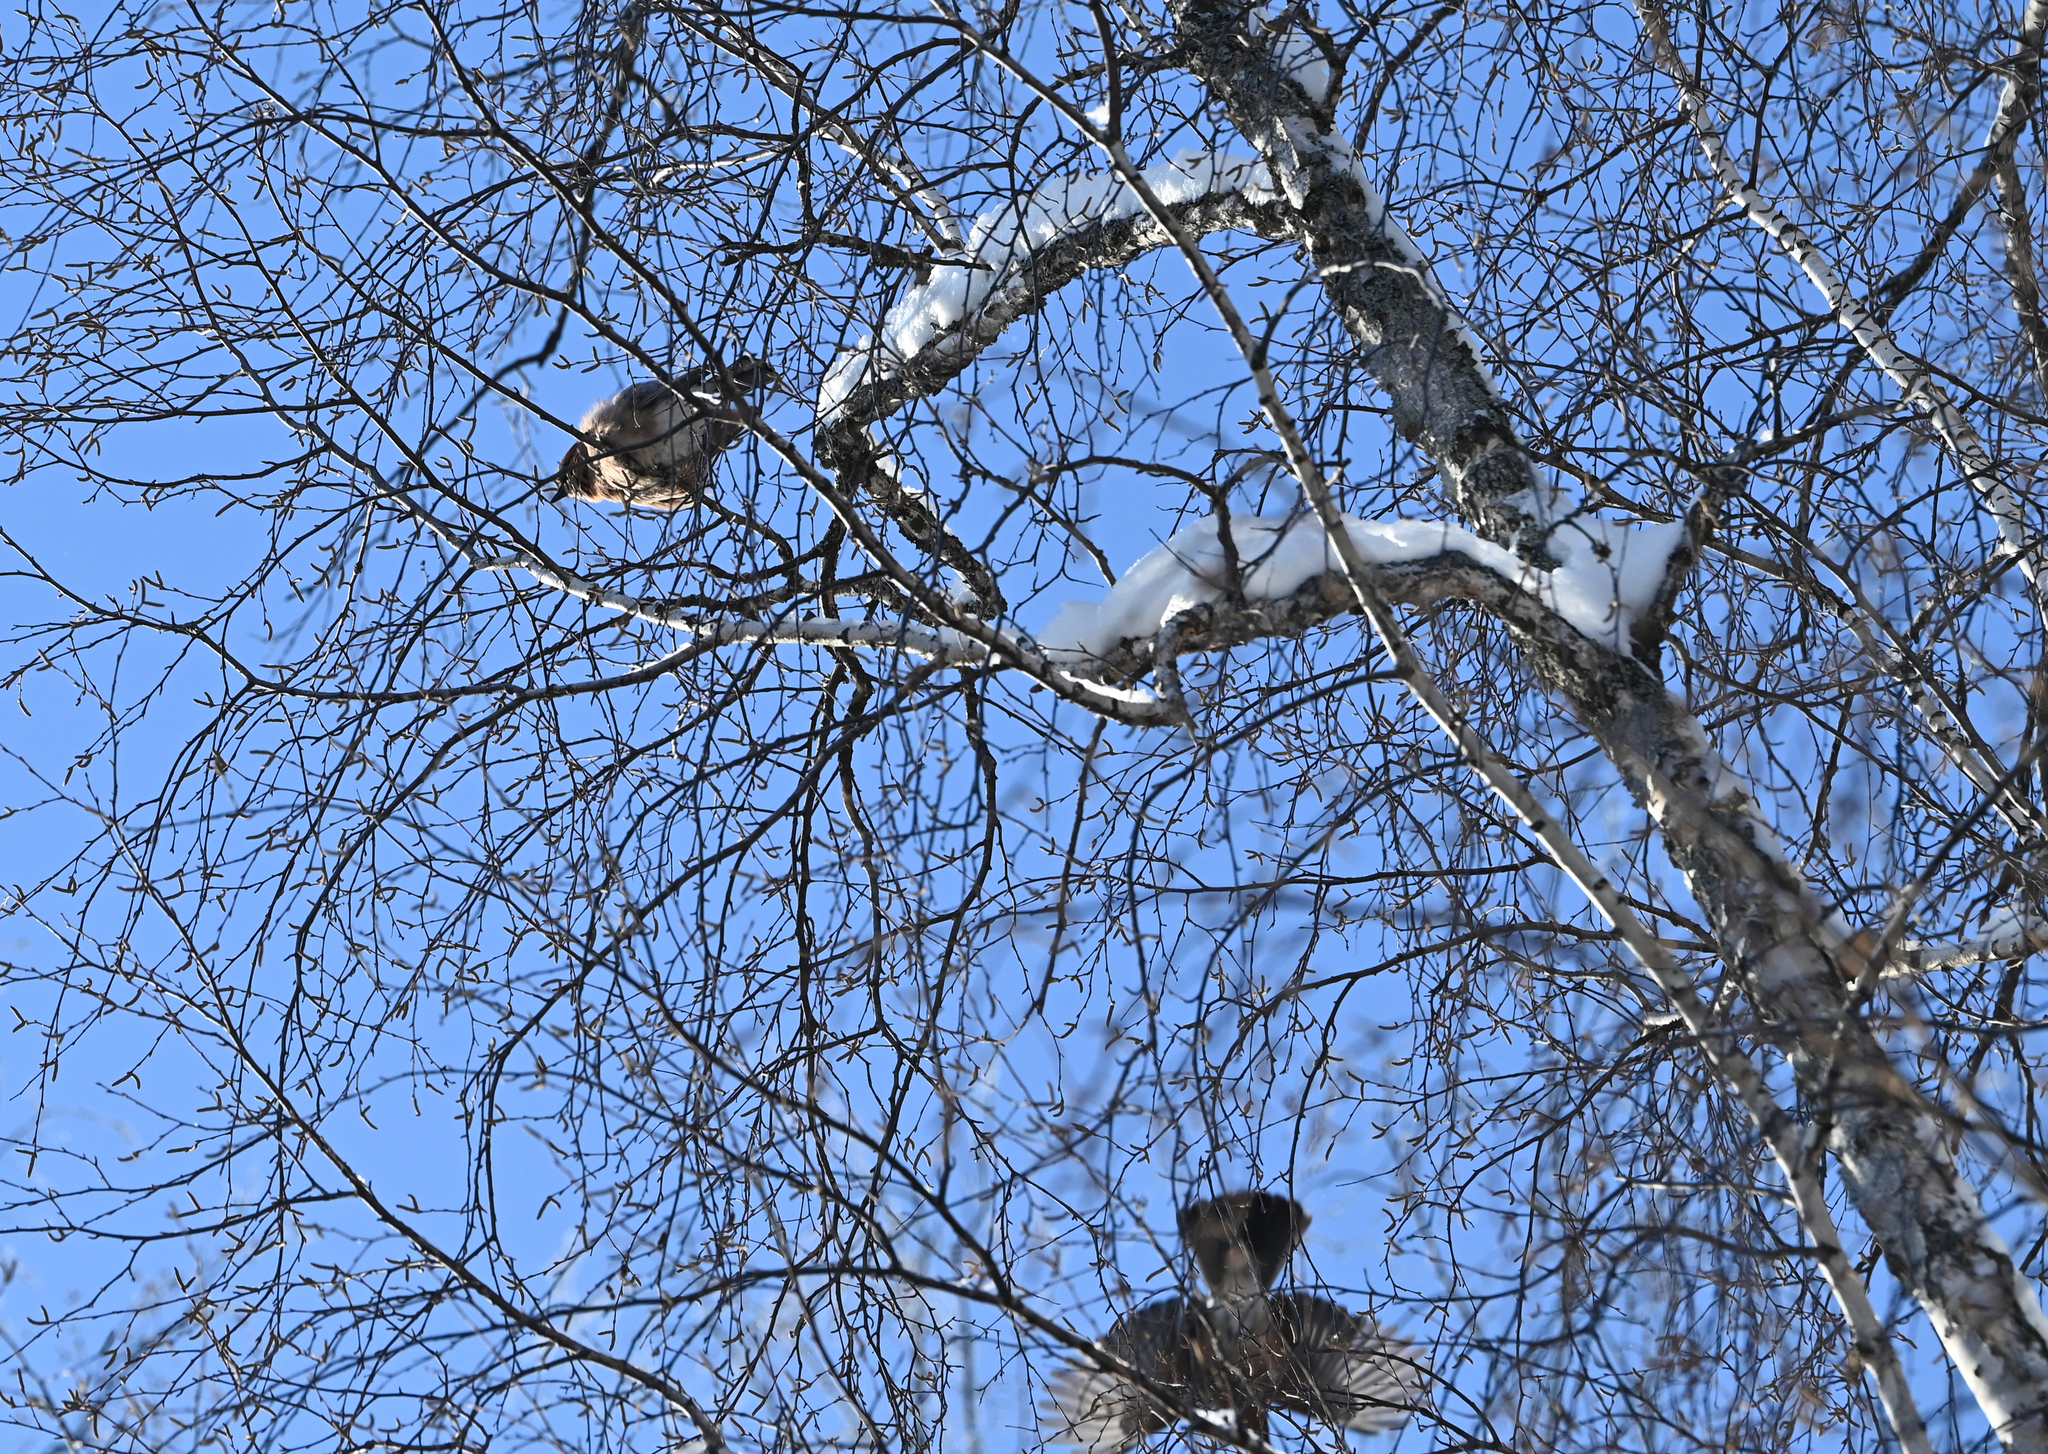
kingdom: Animalia
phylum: Chordata
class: Aves
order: Passeriformes
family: Corvidae
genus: Garrulus
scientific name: Garrulus glandarius
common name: Eurasian jay
